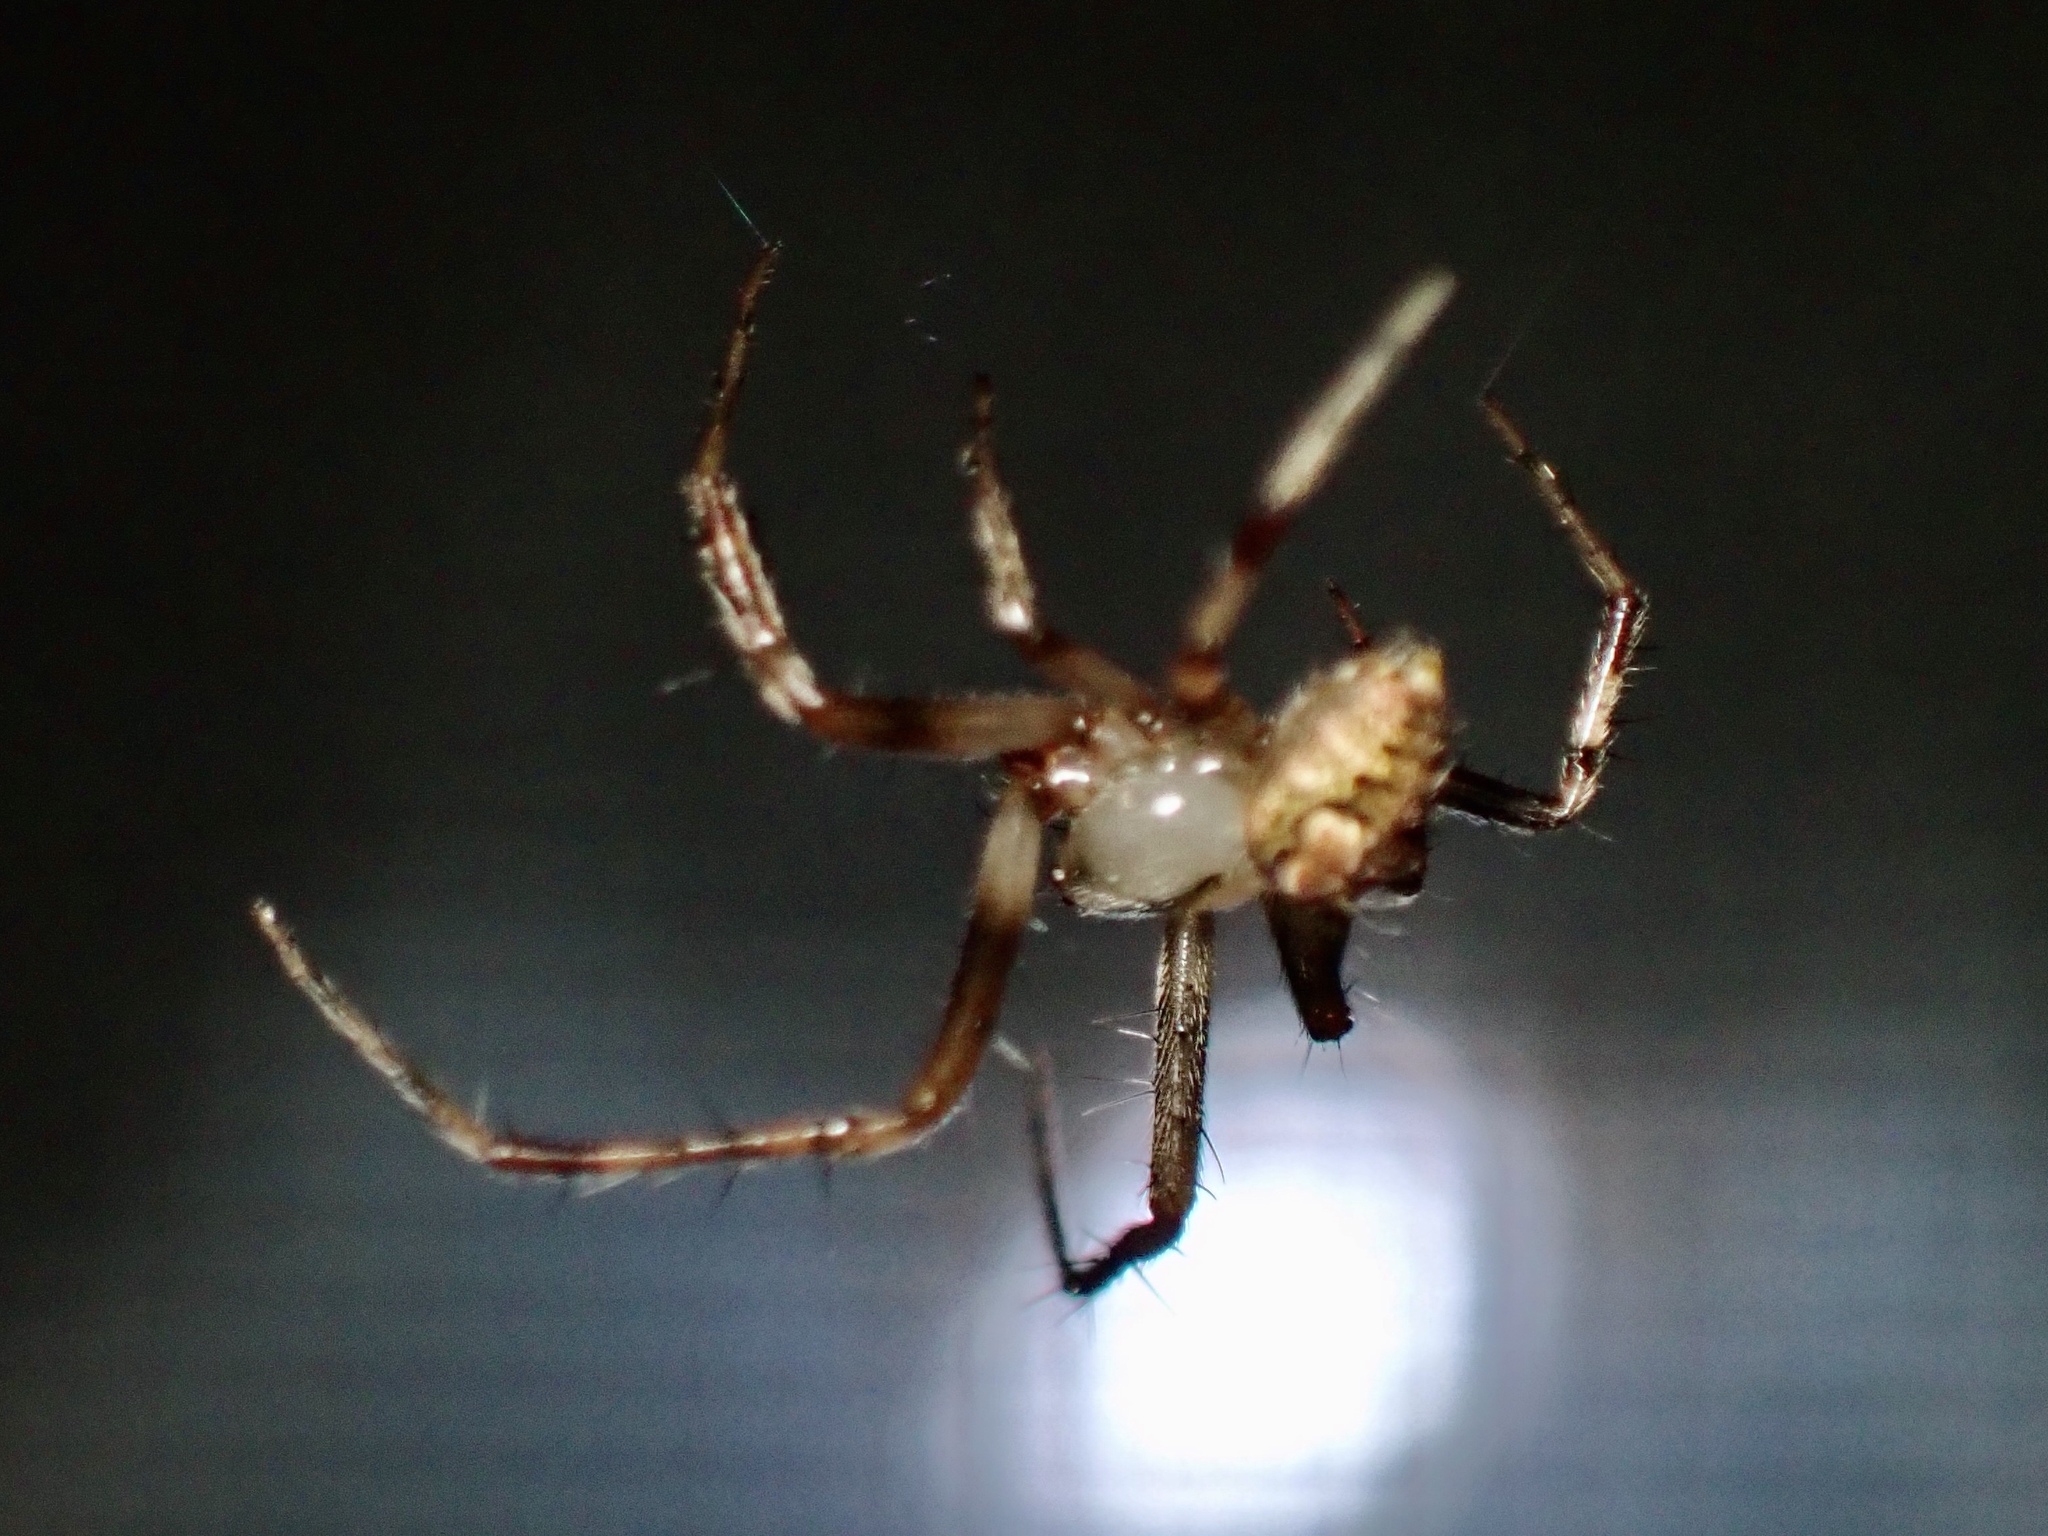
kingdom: Animalia
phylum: Arthropoda
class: Arachnida
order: Araneae
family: Araneidae
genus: Araneus
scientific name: Araneus pegnia
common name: Orb weavers
